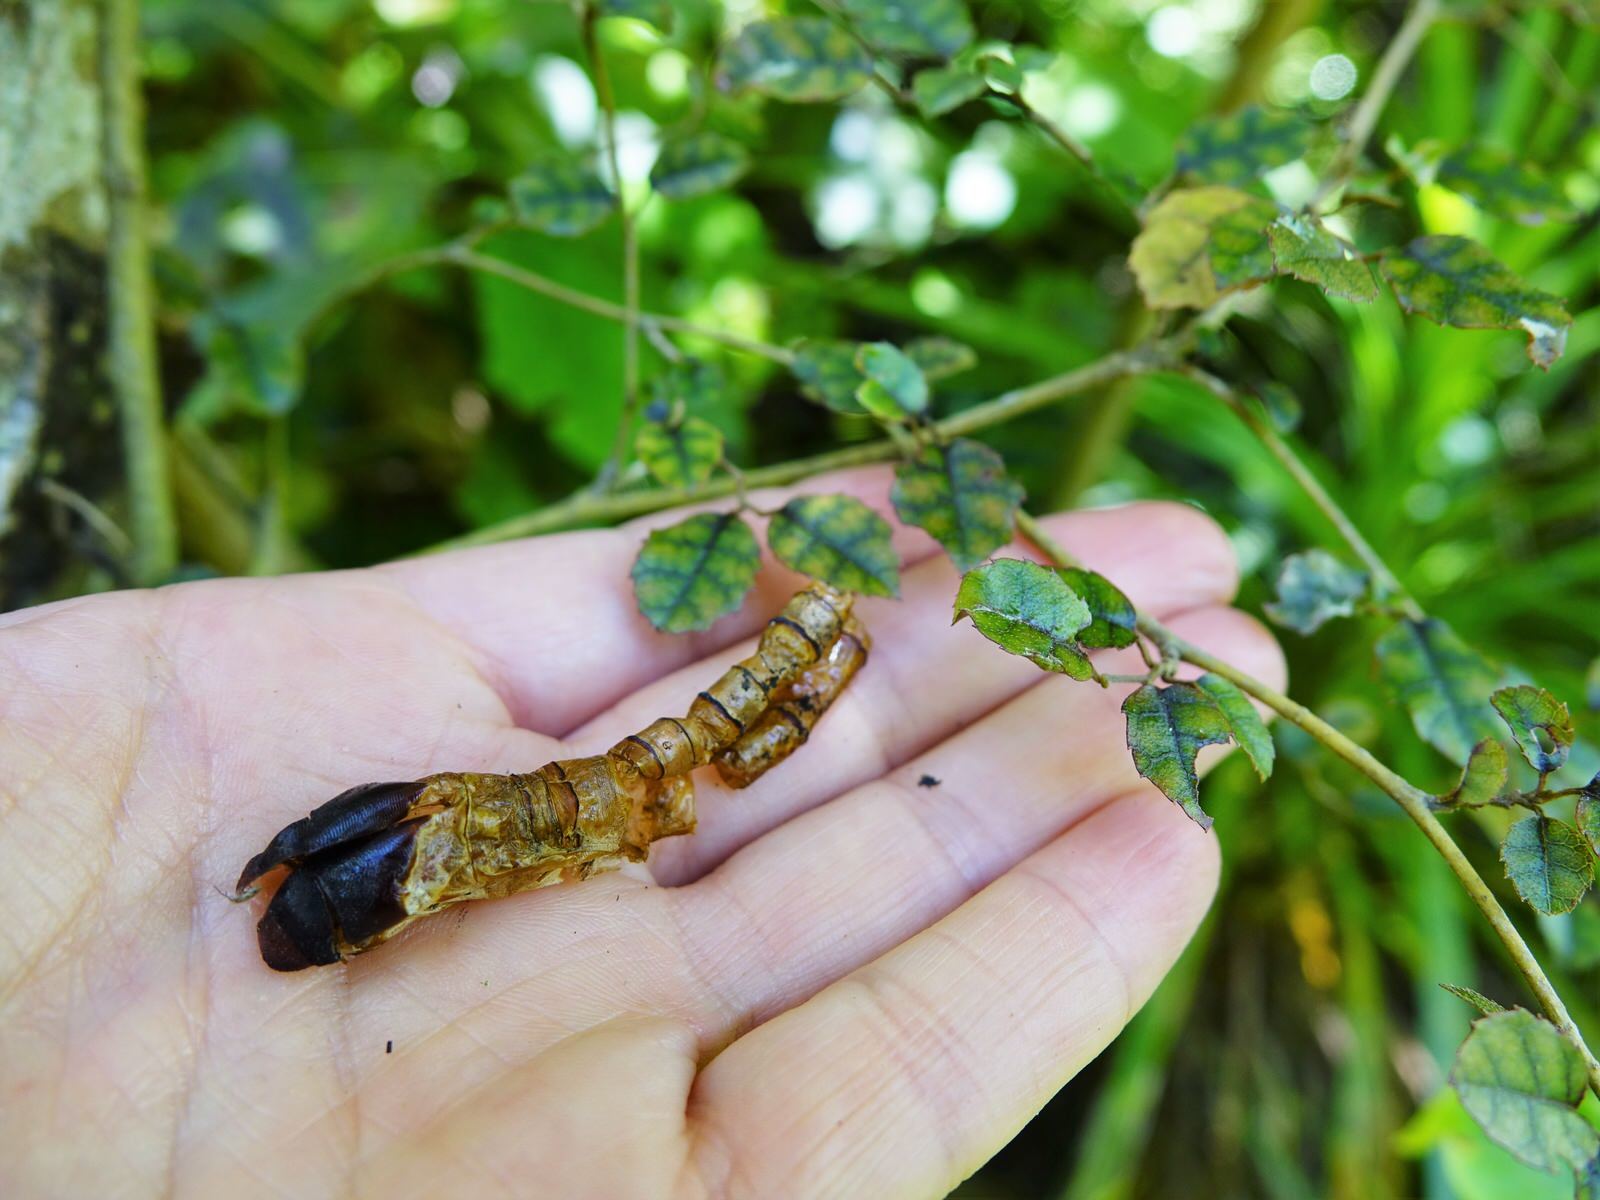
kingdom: Animalia
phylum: Arthropoda
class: Insecta
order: Lepidoptera
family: Hepialidae
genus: Aenetus
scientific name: Aenetus virescens
